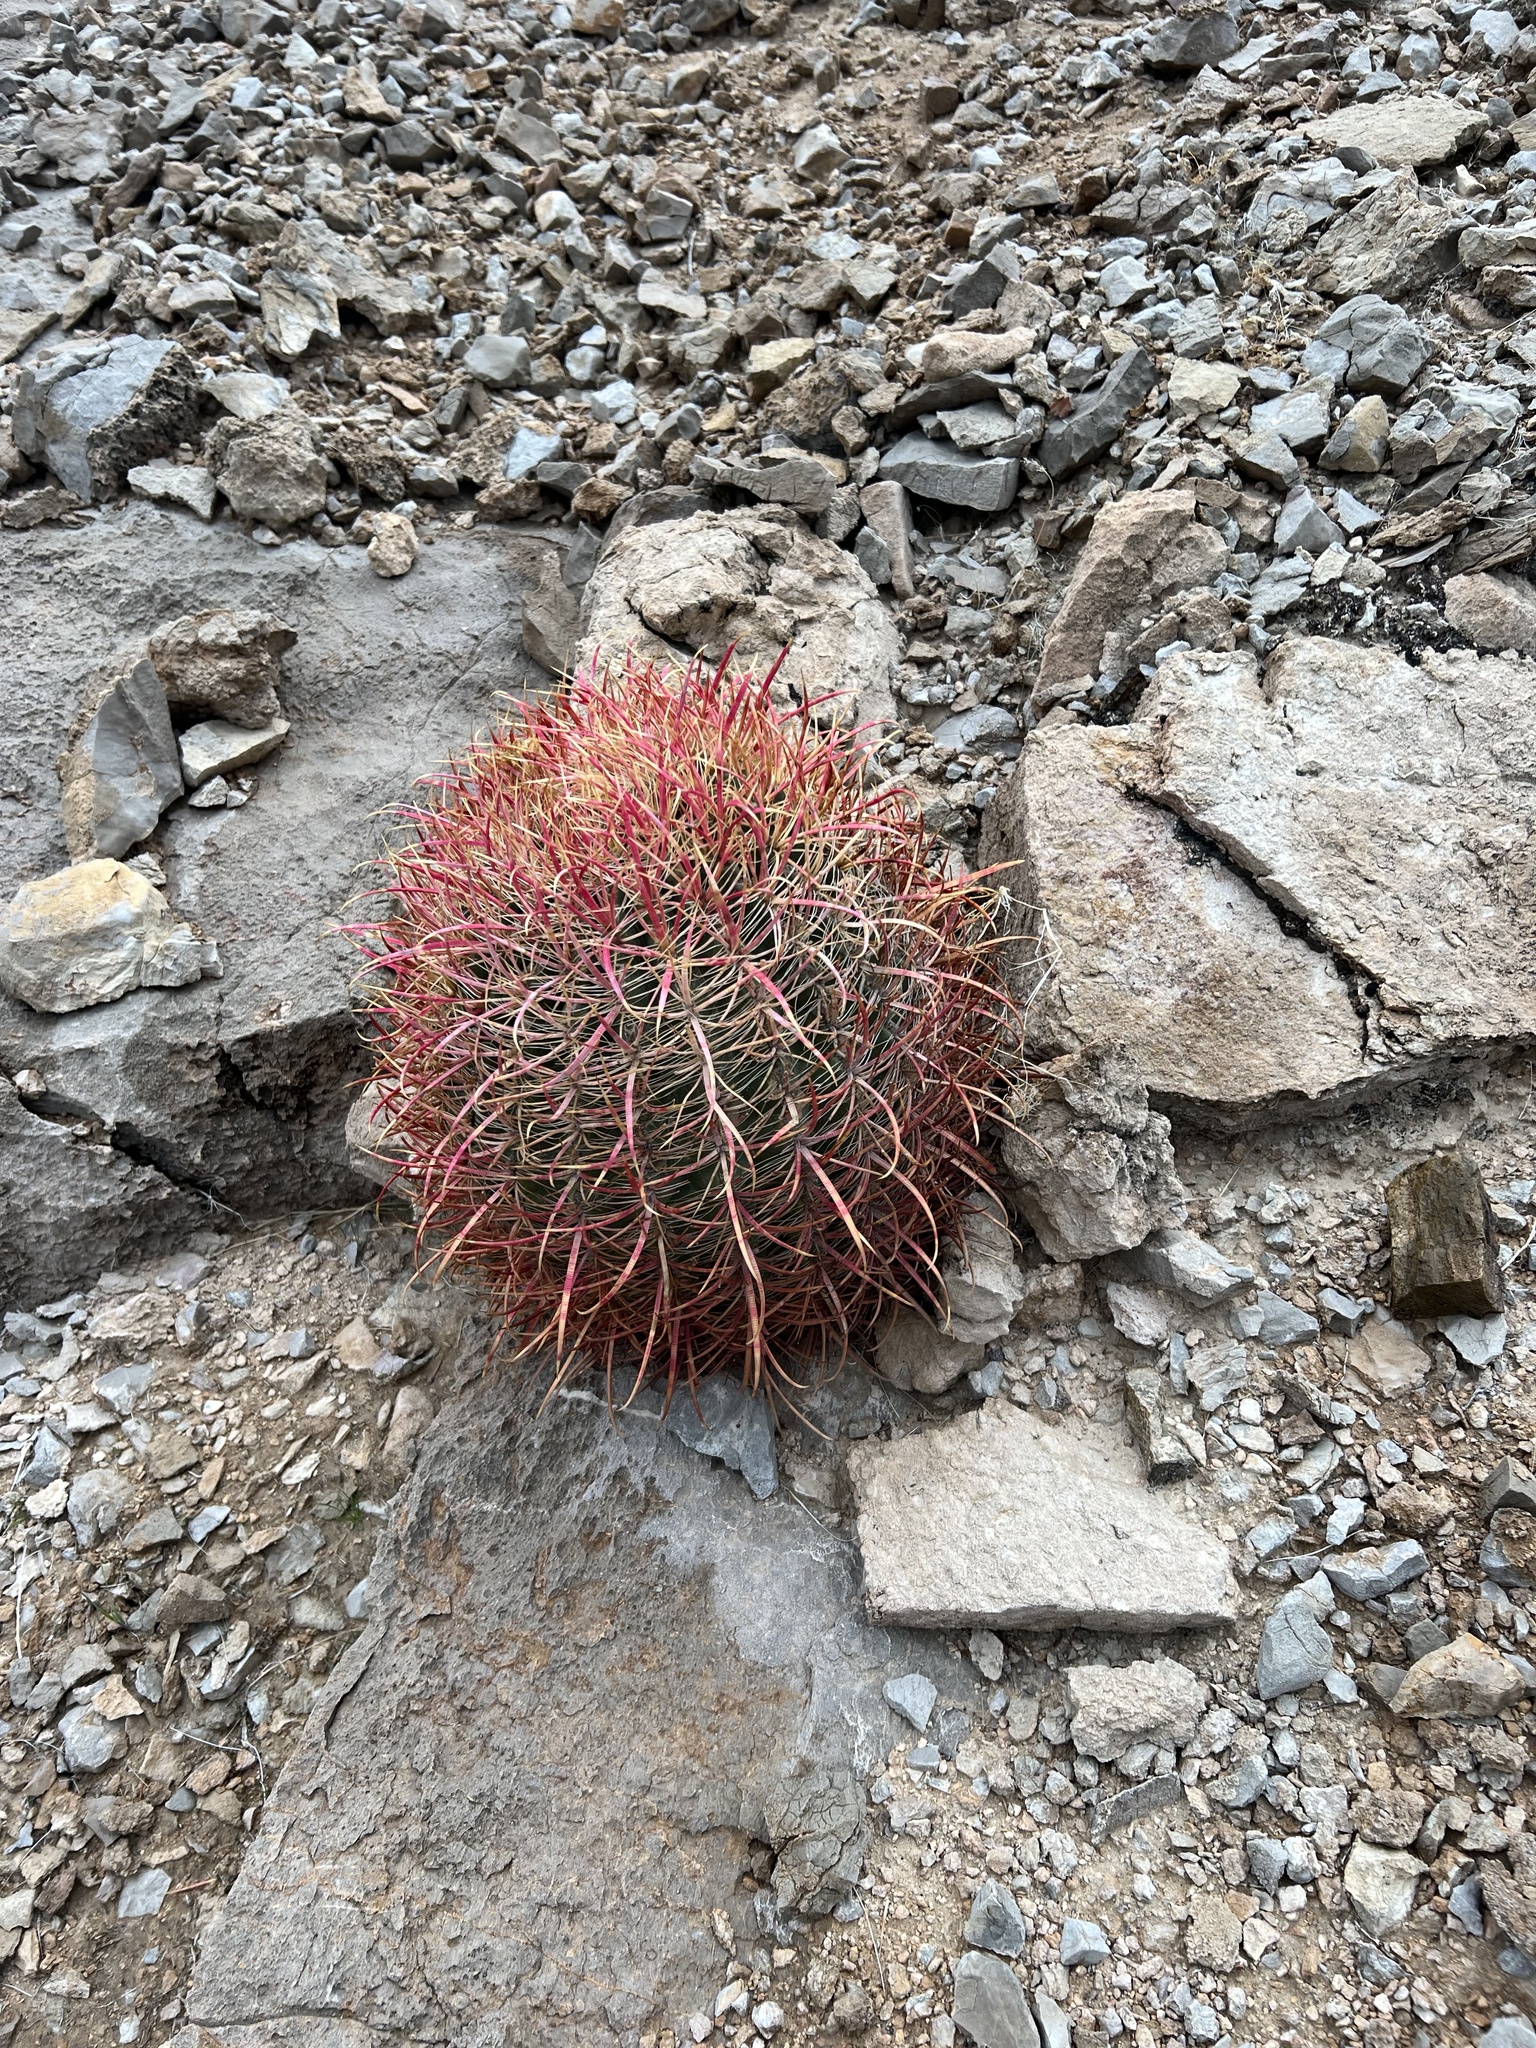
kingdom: Plantae
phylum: Tracheophyta
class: Magnoliopsida
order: Caryophyllales
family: Cactaceae
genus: Ferocactus
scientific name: Ferocactus cylindraceus
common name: California barrel cactus
